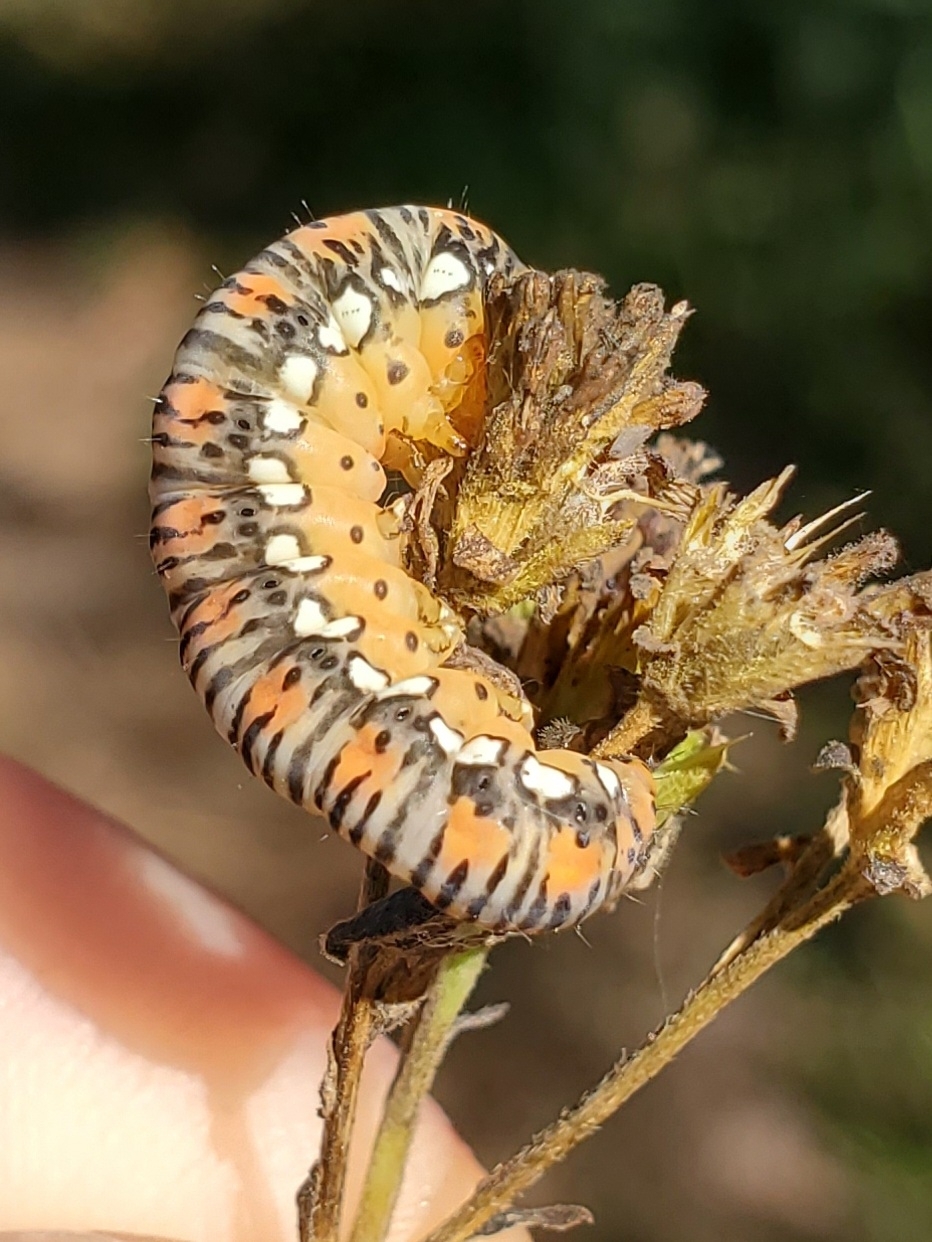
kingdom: Animalia
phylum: Arthropoda
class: Insecta
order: Lepidoptera
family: Noctuidae
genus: Basilodes
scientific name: Basilodes pepita
